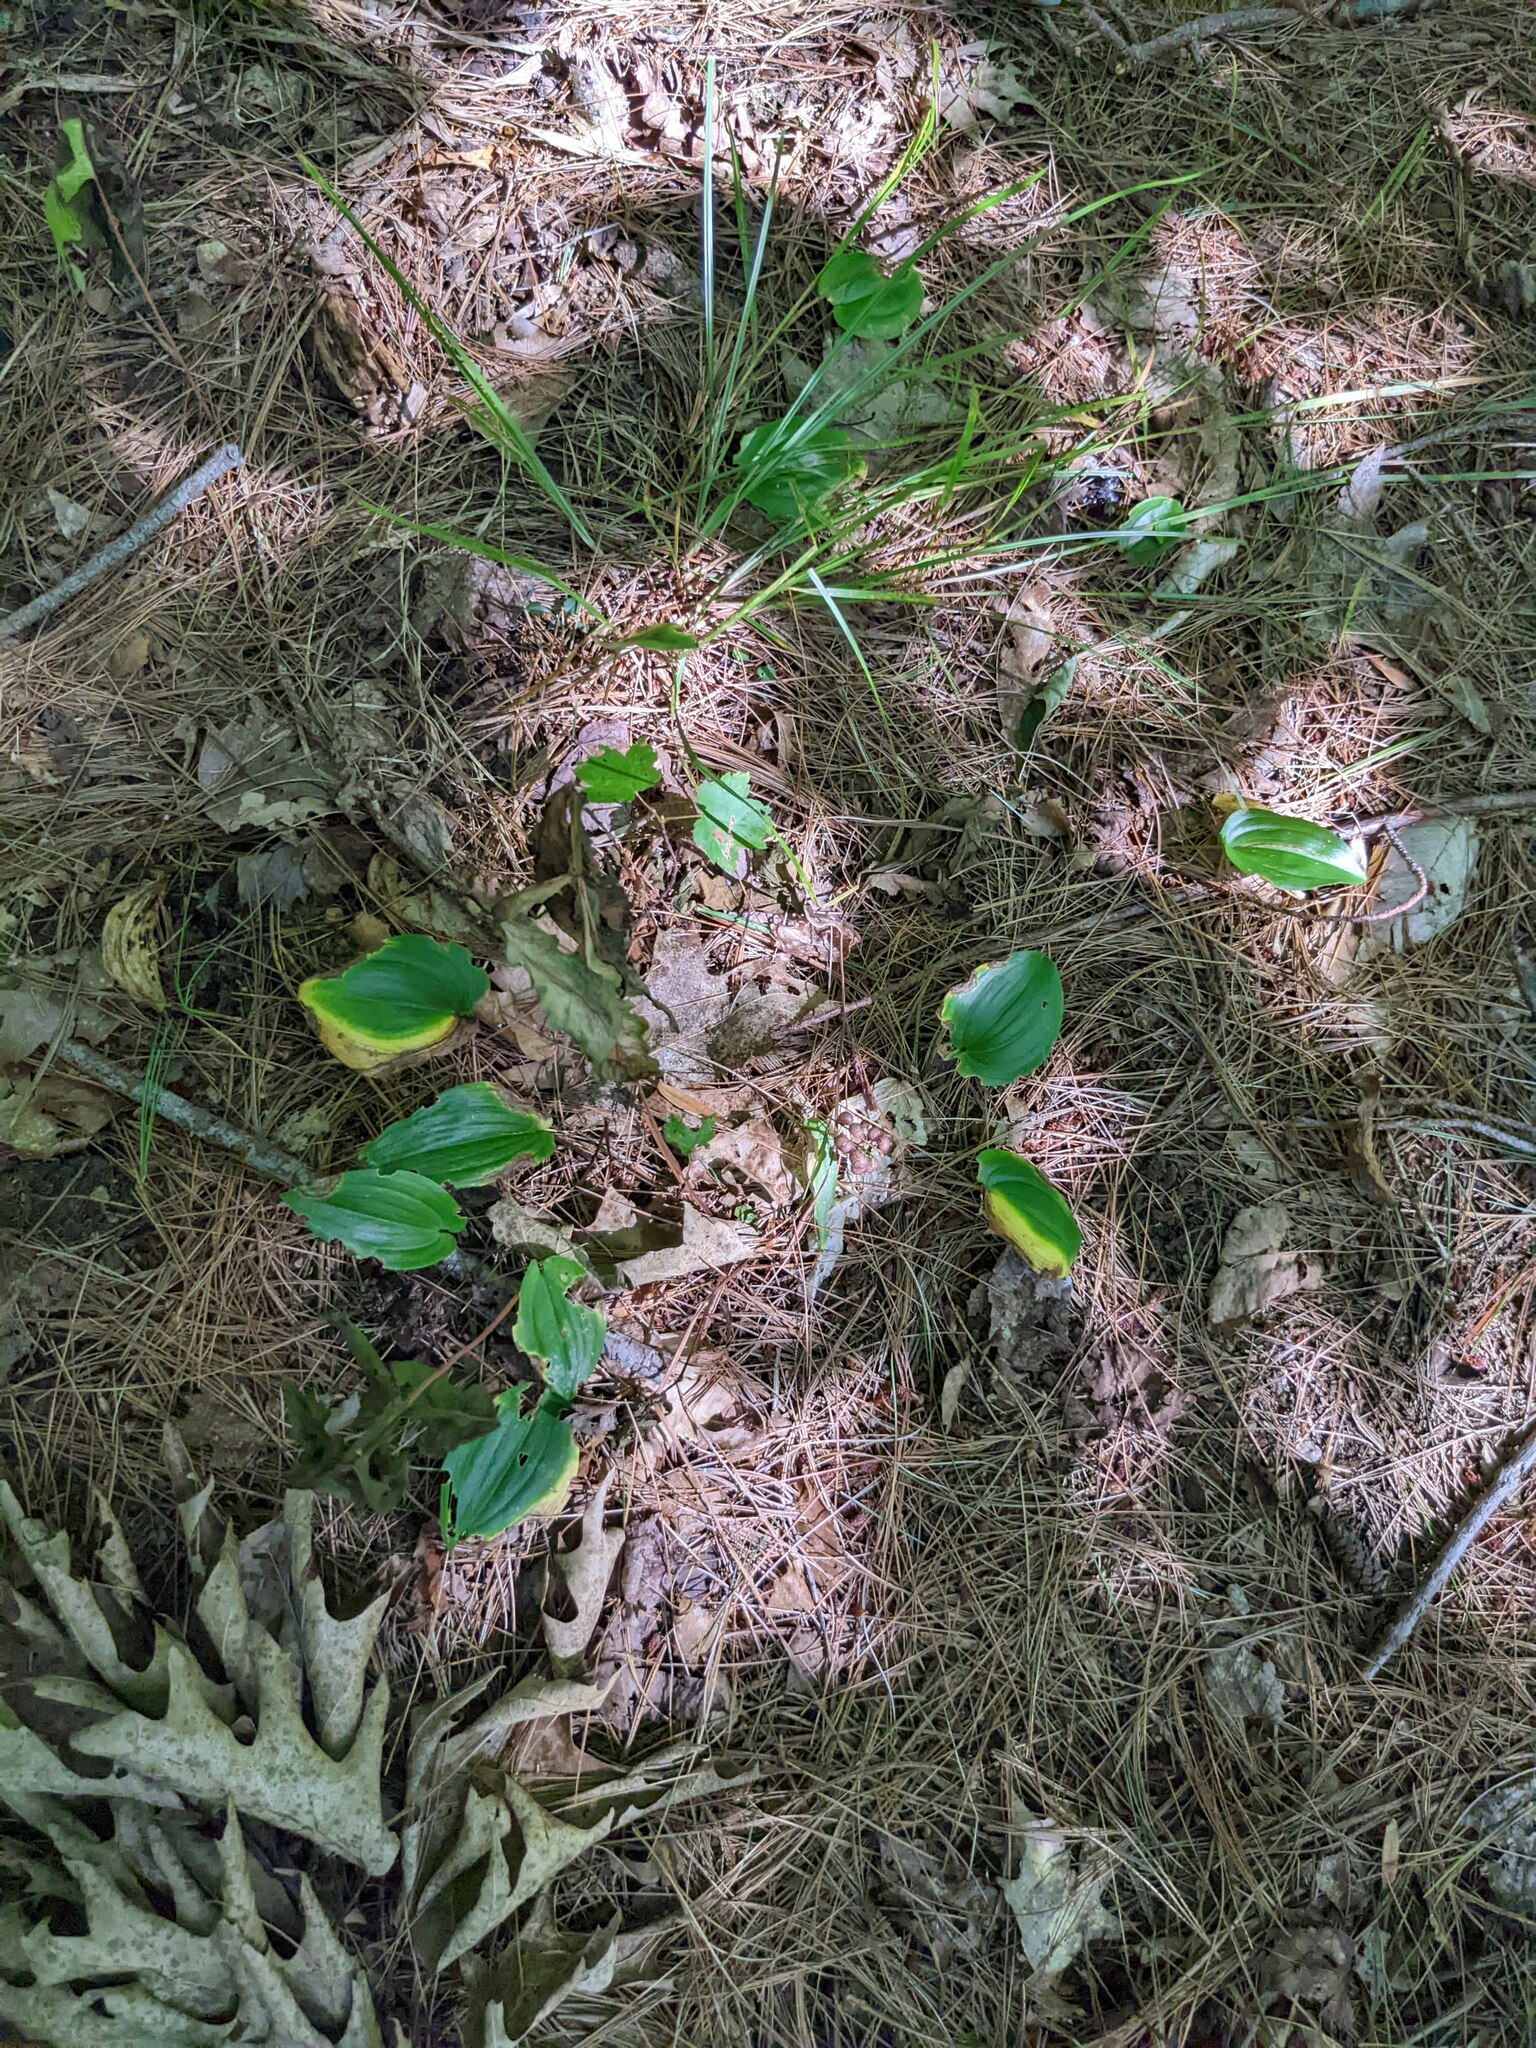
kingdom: Plantae
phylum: Tracheophyta
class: Liliopsida
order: Asparagales
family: Asparagaceae
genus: Maianthemum
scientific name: Maianthemum canadense
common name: False lily-of-the-valley
